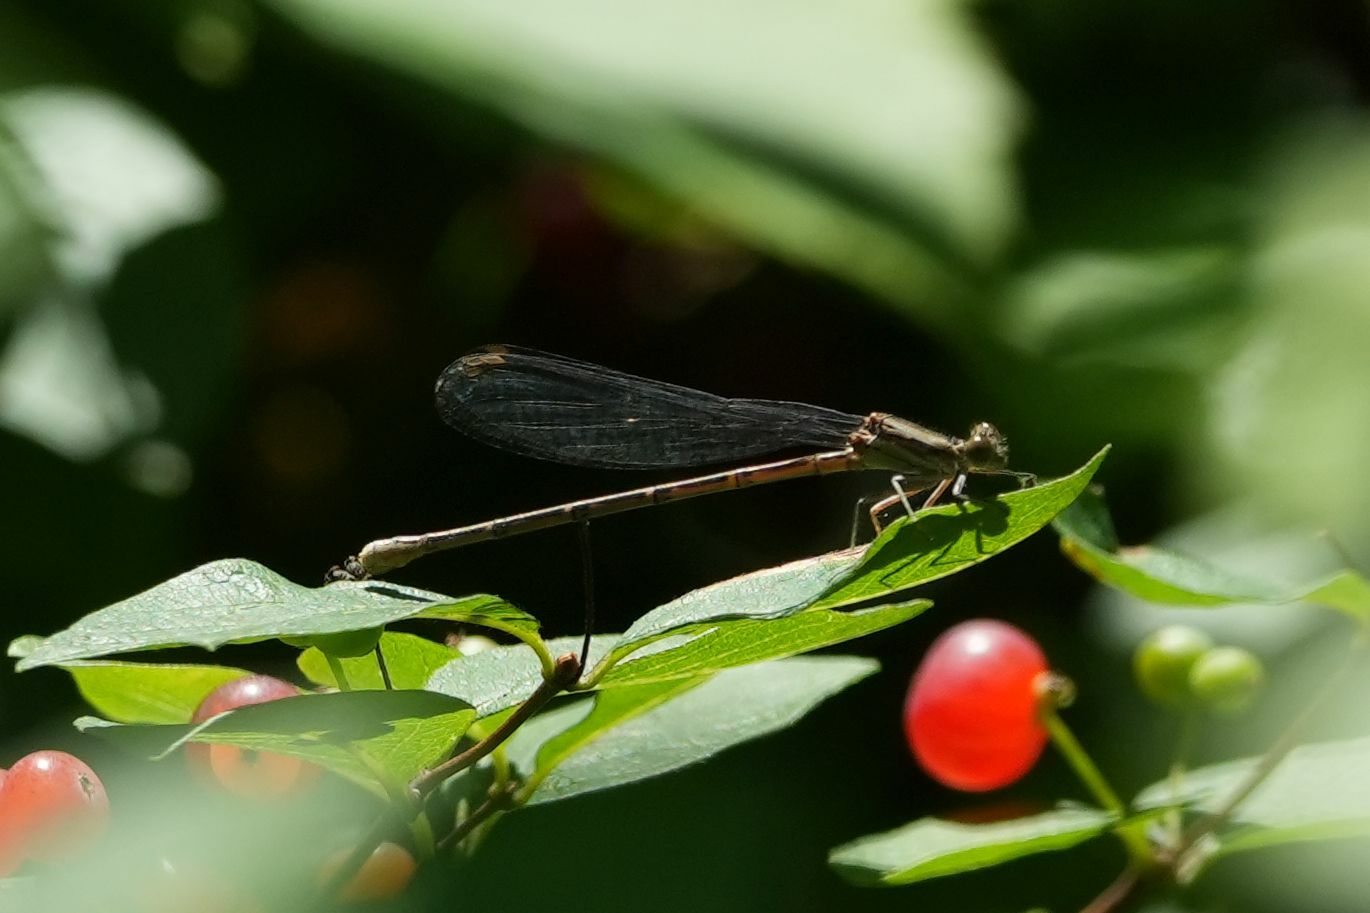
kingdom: Animalia
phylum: Arthropoda
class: Insecta
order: Odonata
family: Coenagrionidae
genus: Argia
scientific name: Argia fumipennis
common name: Variable dancer
